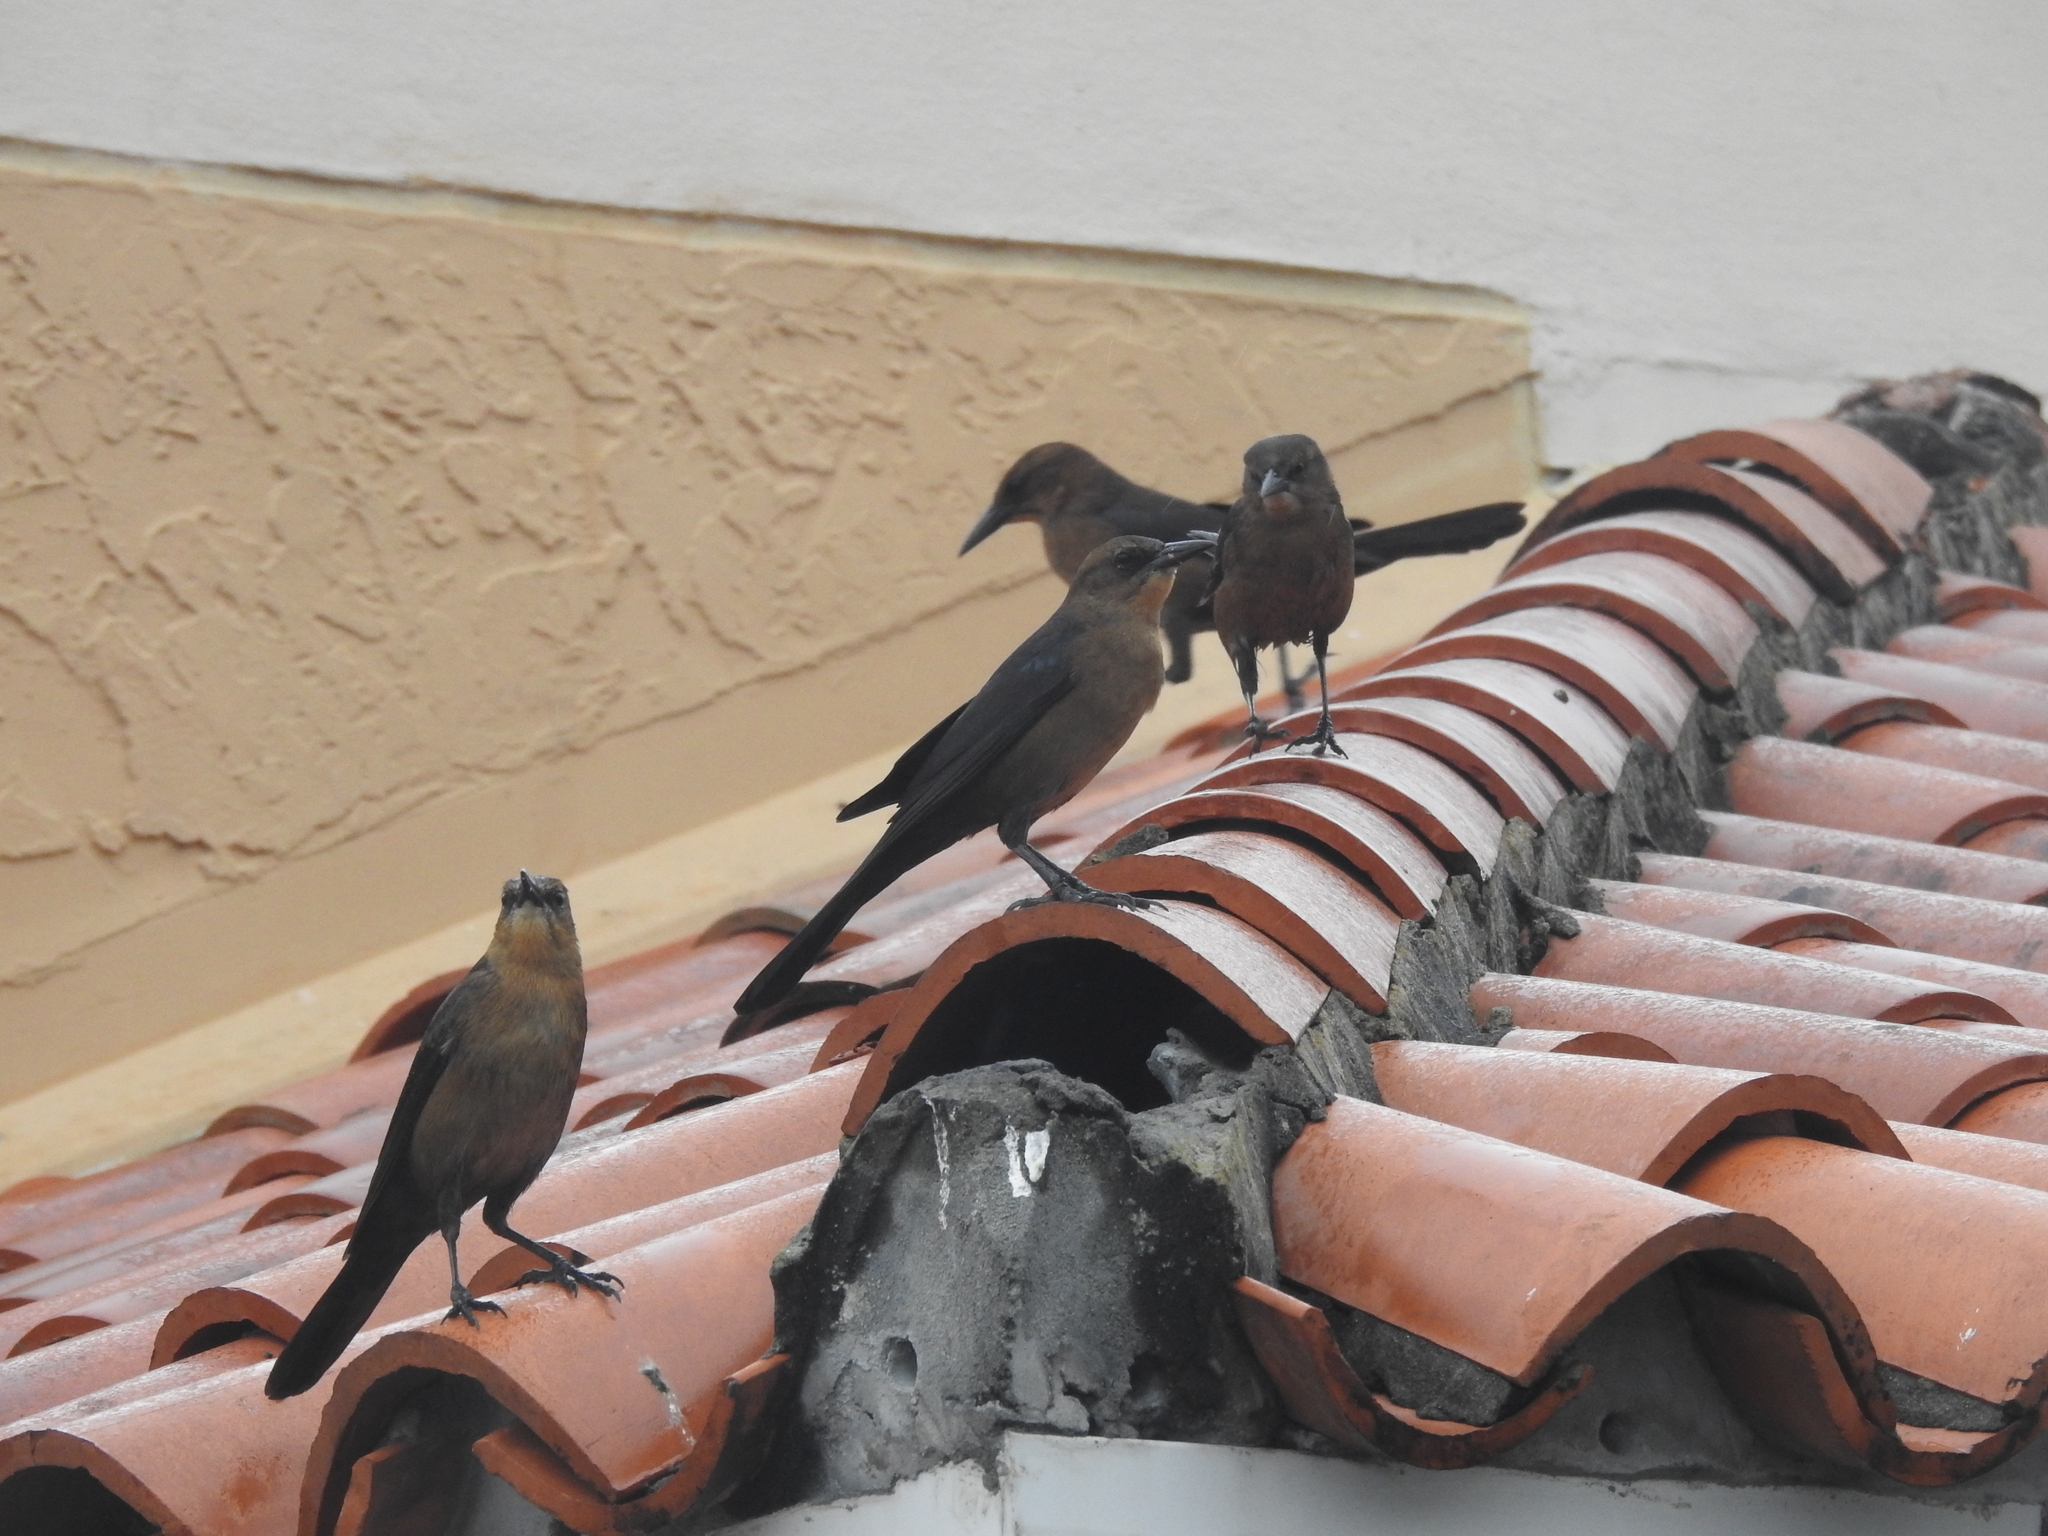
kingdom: Animalia
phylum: Chordata
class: Aves
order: Passeriformes
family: Icteridae
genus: Quiscalus
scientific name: Quiscalus major
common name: Boat-tailed grackle
